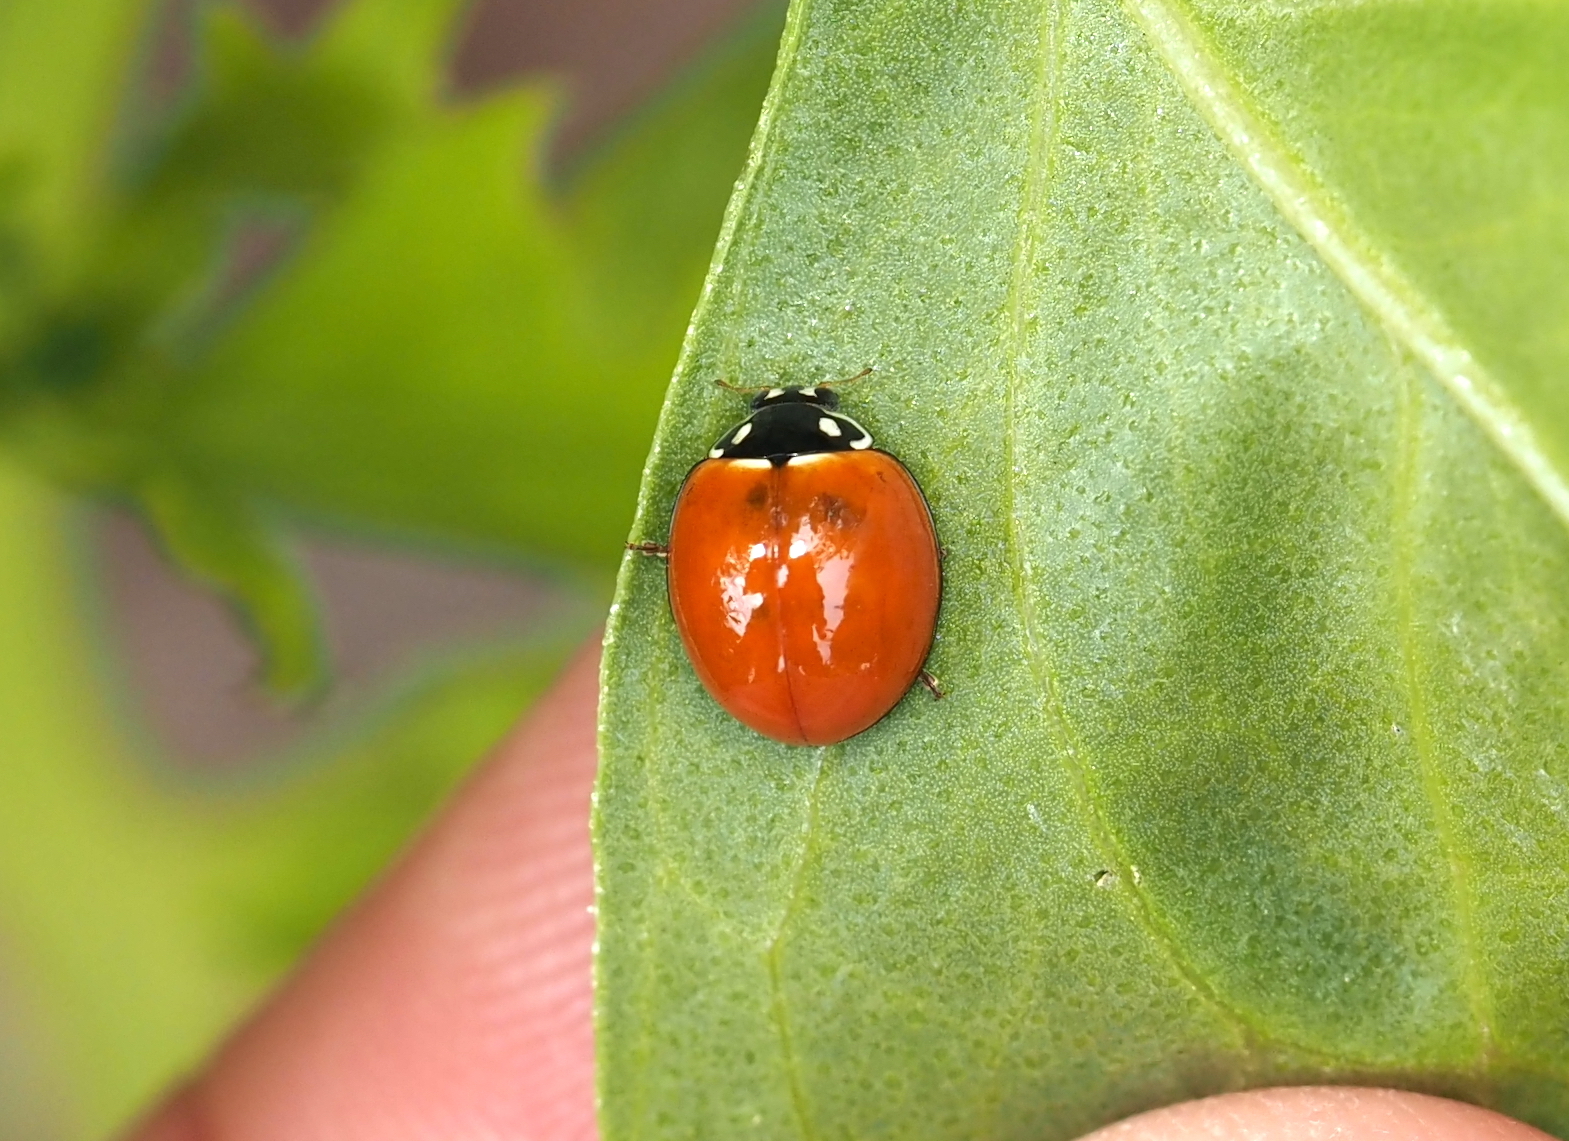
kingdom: Animalia
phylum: Arthropoda
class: Insecta
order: Coleoptera
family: Coccinellidae
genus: Cycloneda
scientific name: Cycloneda sanguinea
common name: Ladybird beetle
